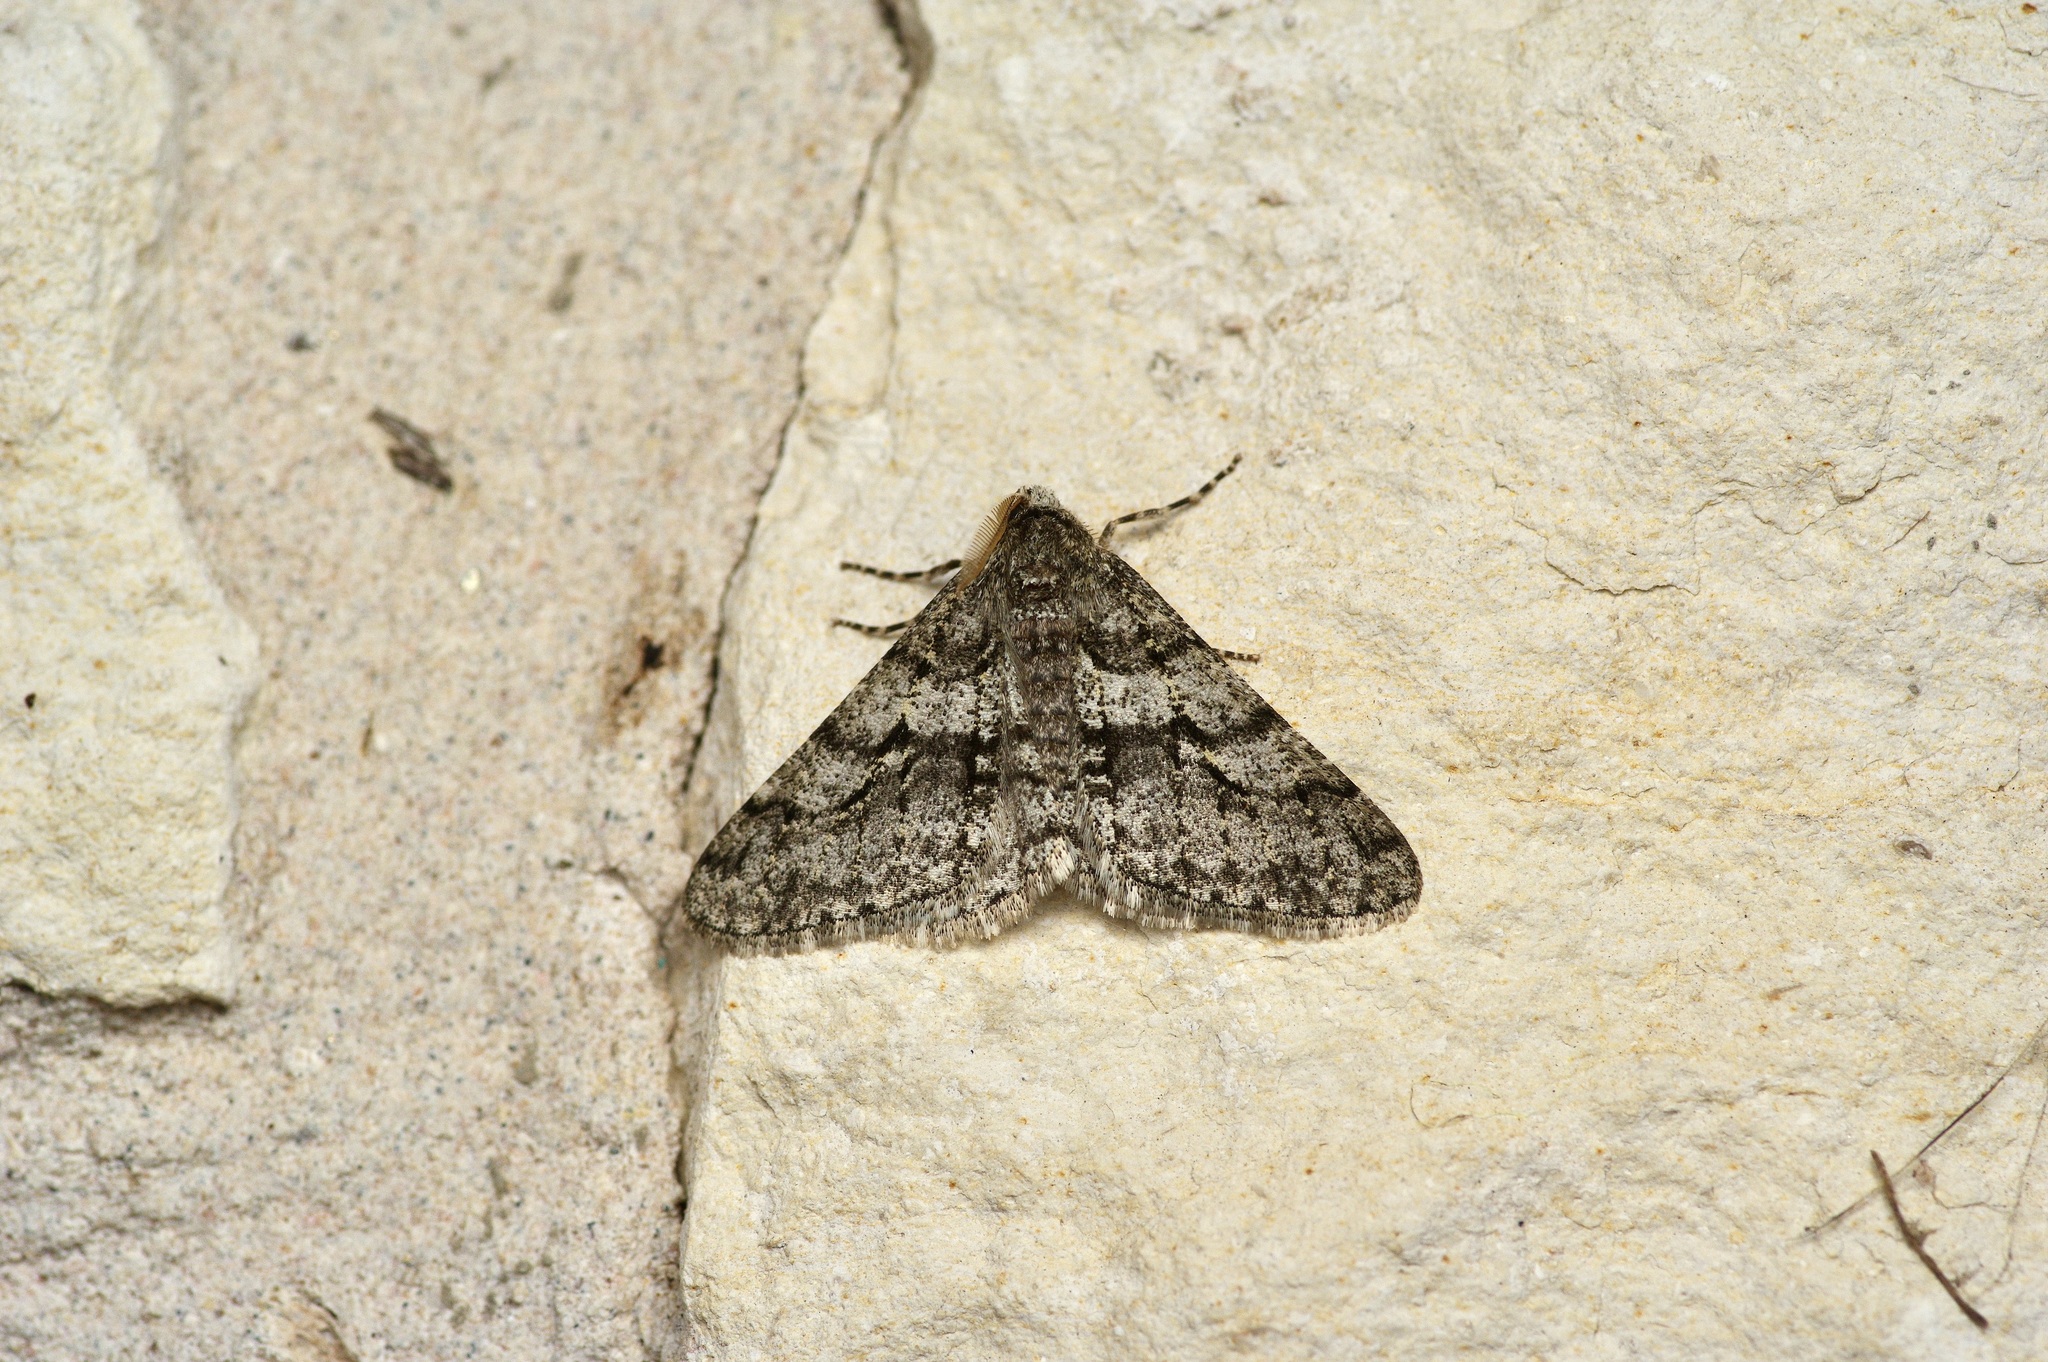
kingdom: Animalia
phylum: Arthropoda
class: Insecta
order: Lepidoptera
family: Geometridae
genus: Phigalia
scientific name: Phigalia titea
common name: Spiny looper
